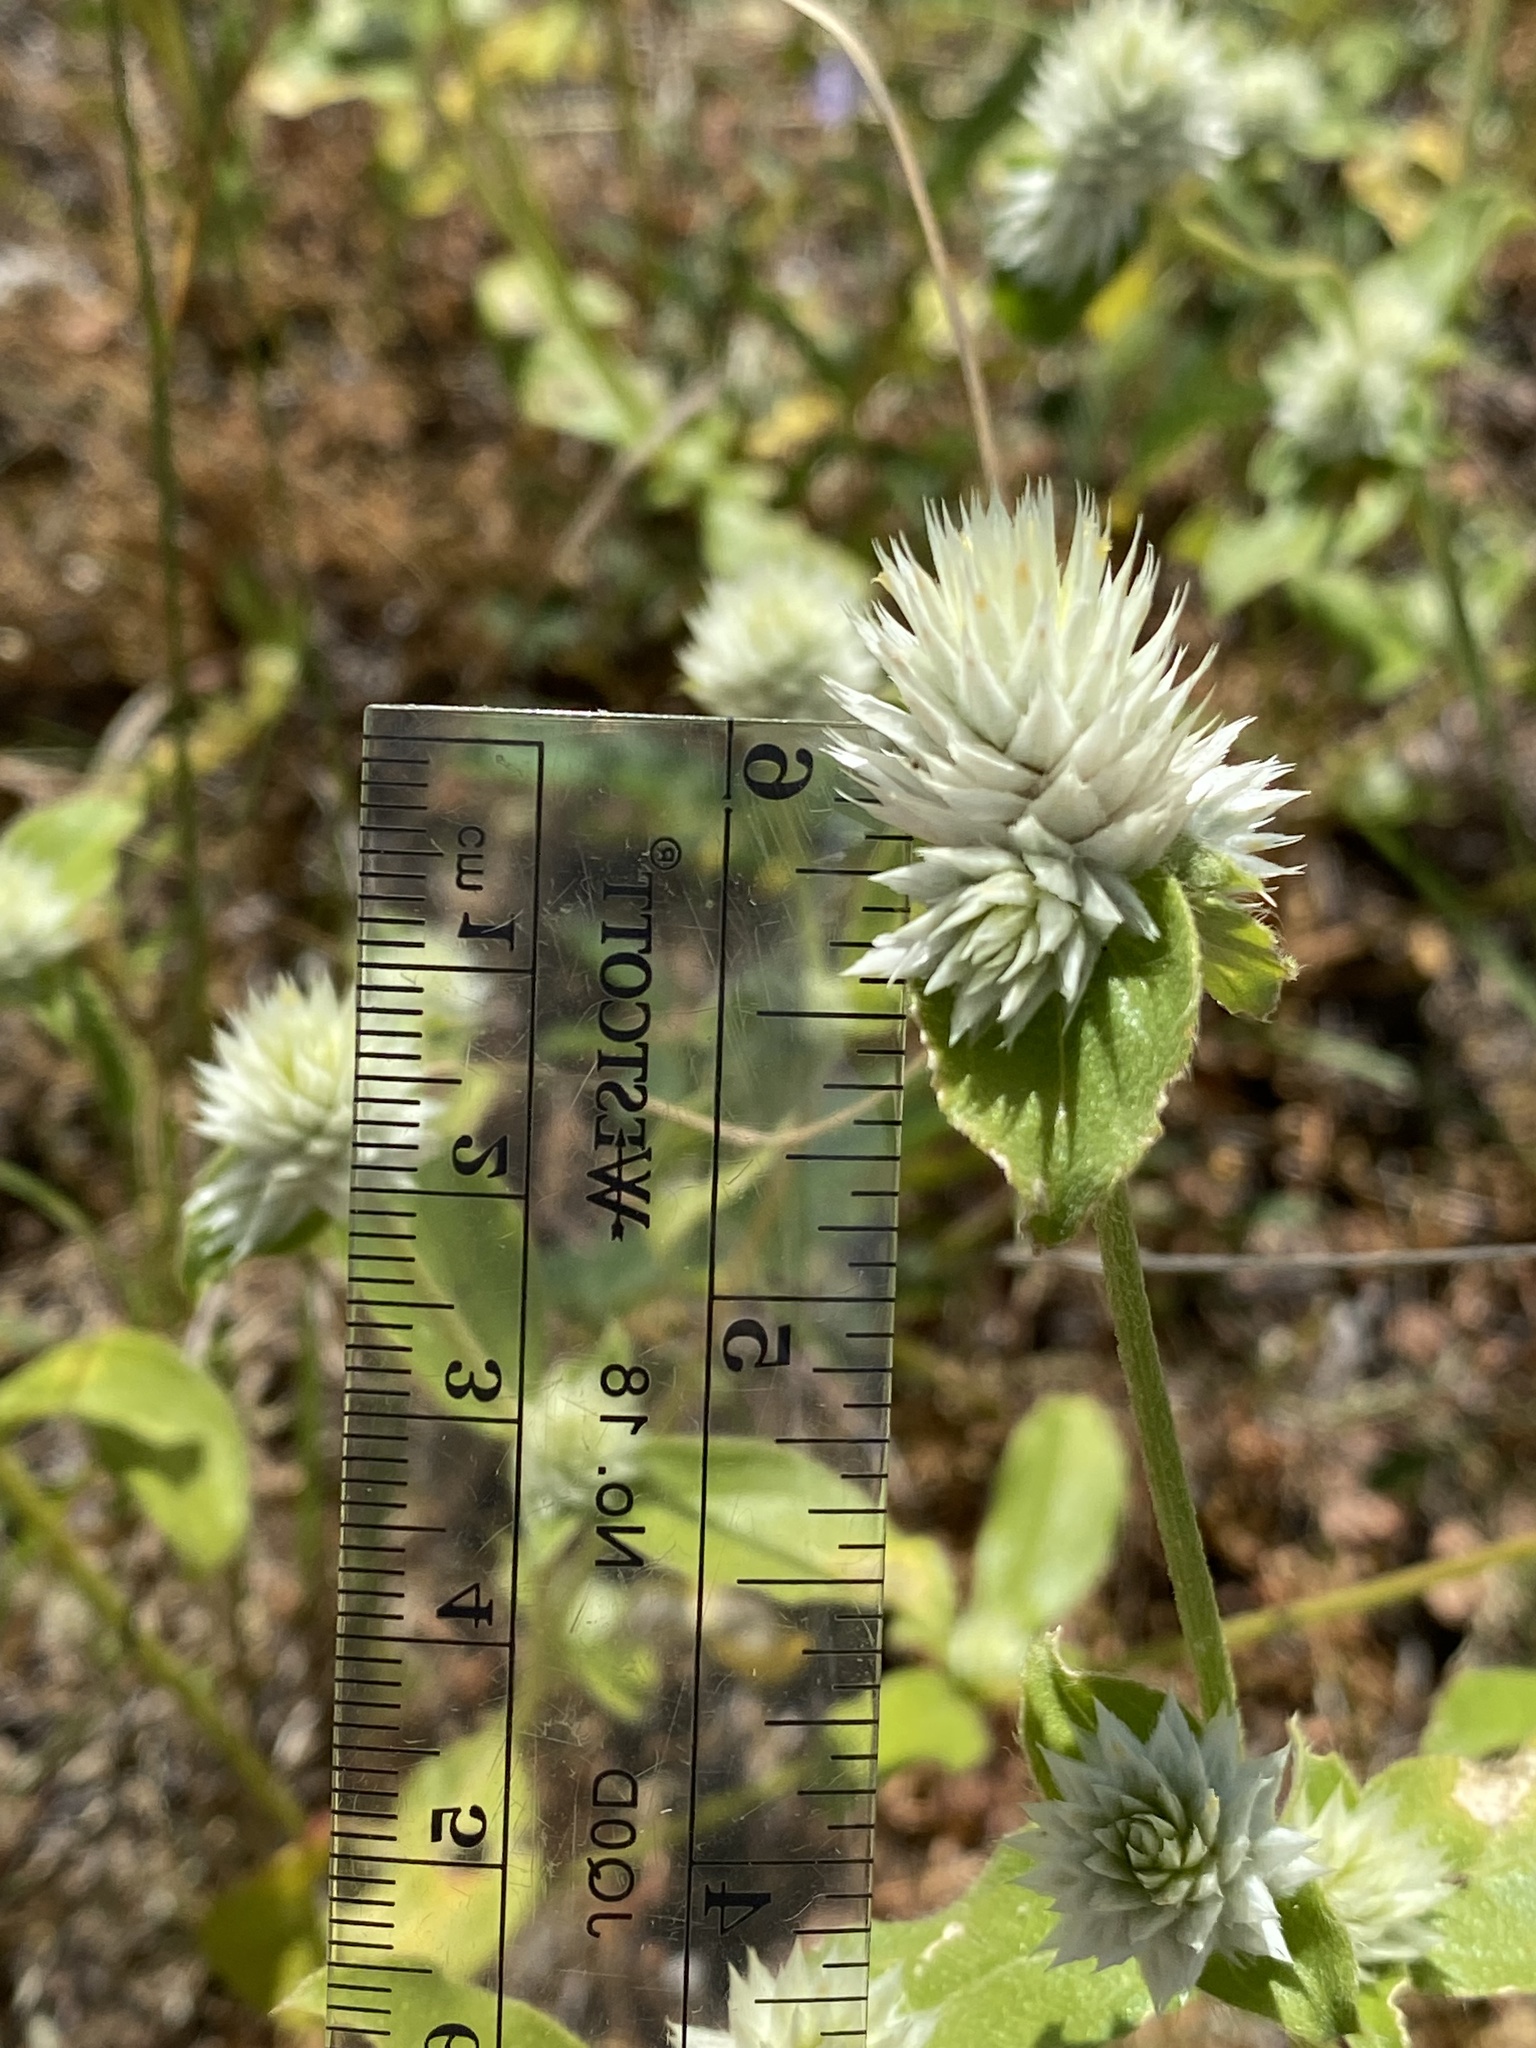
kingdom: Plantae
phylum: Tracheophyta
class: Magnoliopsida
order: Caryophyllales
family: Amaranthaceae
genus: Gomphrena
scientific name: Gomphrena nitida
